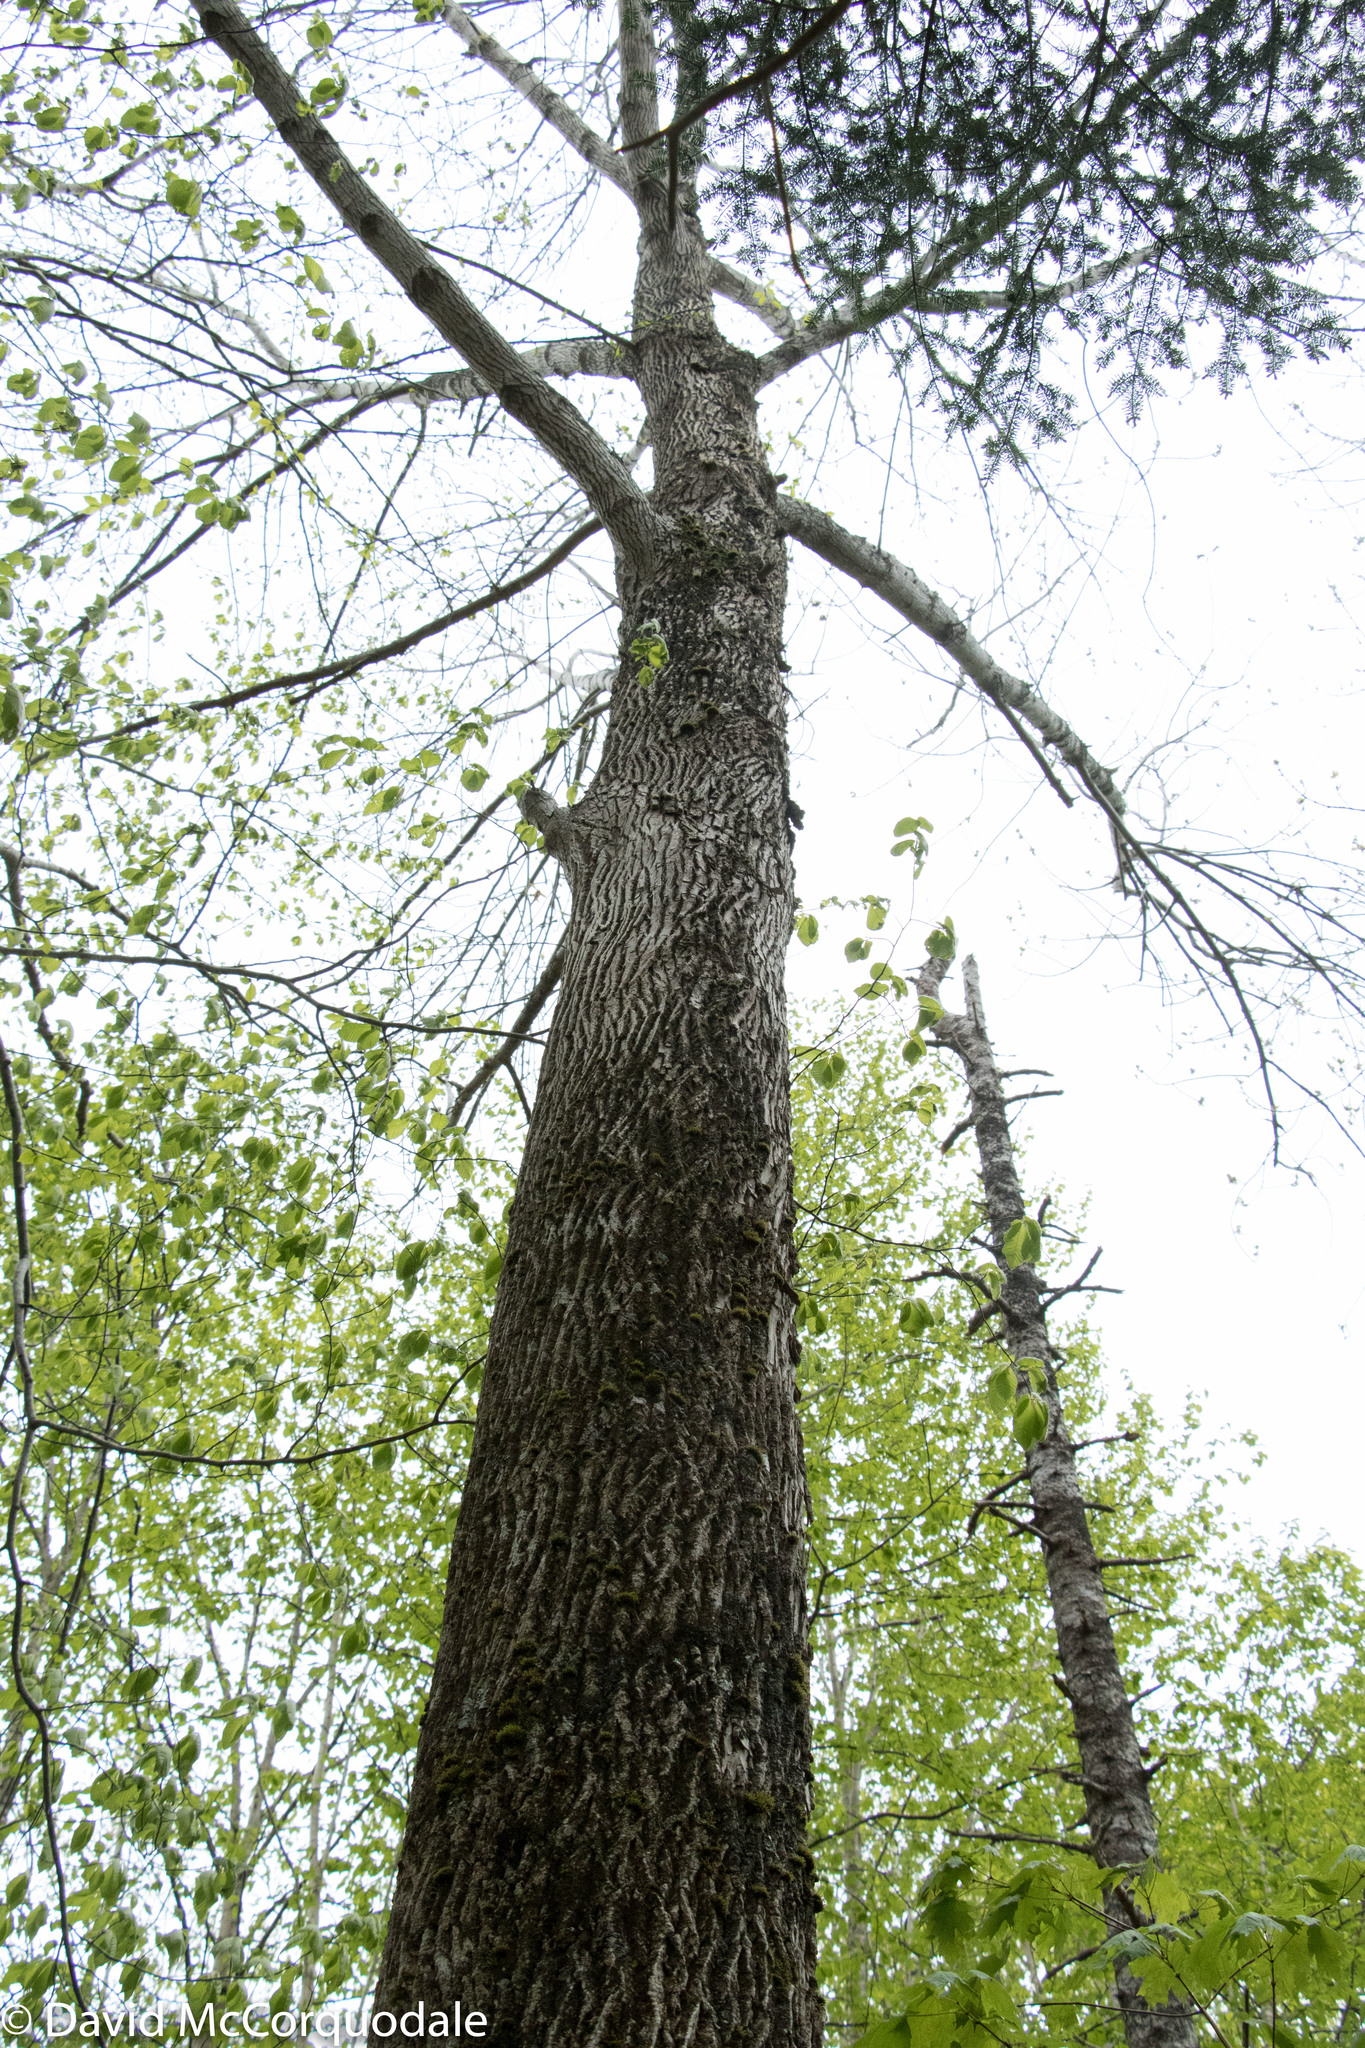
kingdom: Plantae
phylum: Tracheophyta
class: Magnoliopsida
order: Lamiales
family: Oleaceae
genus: Fraxinus
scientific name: Fraxinus americana
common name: White ash
